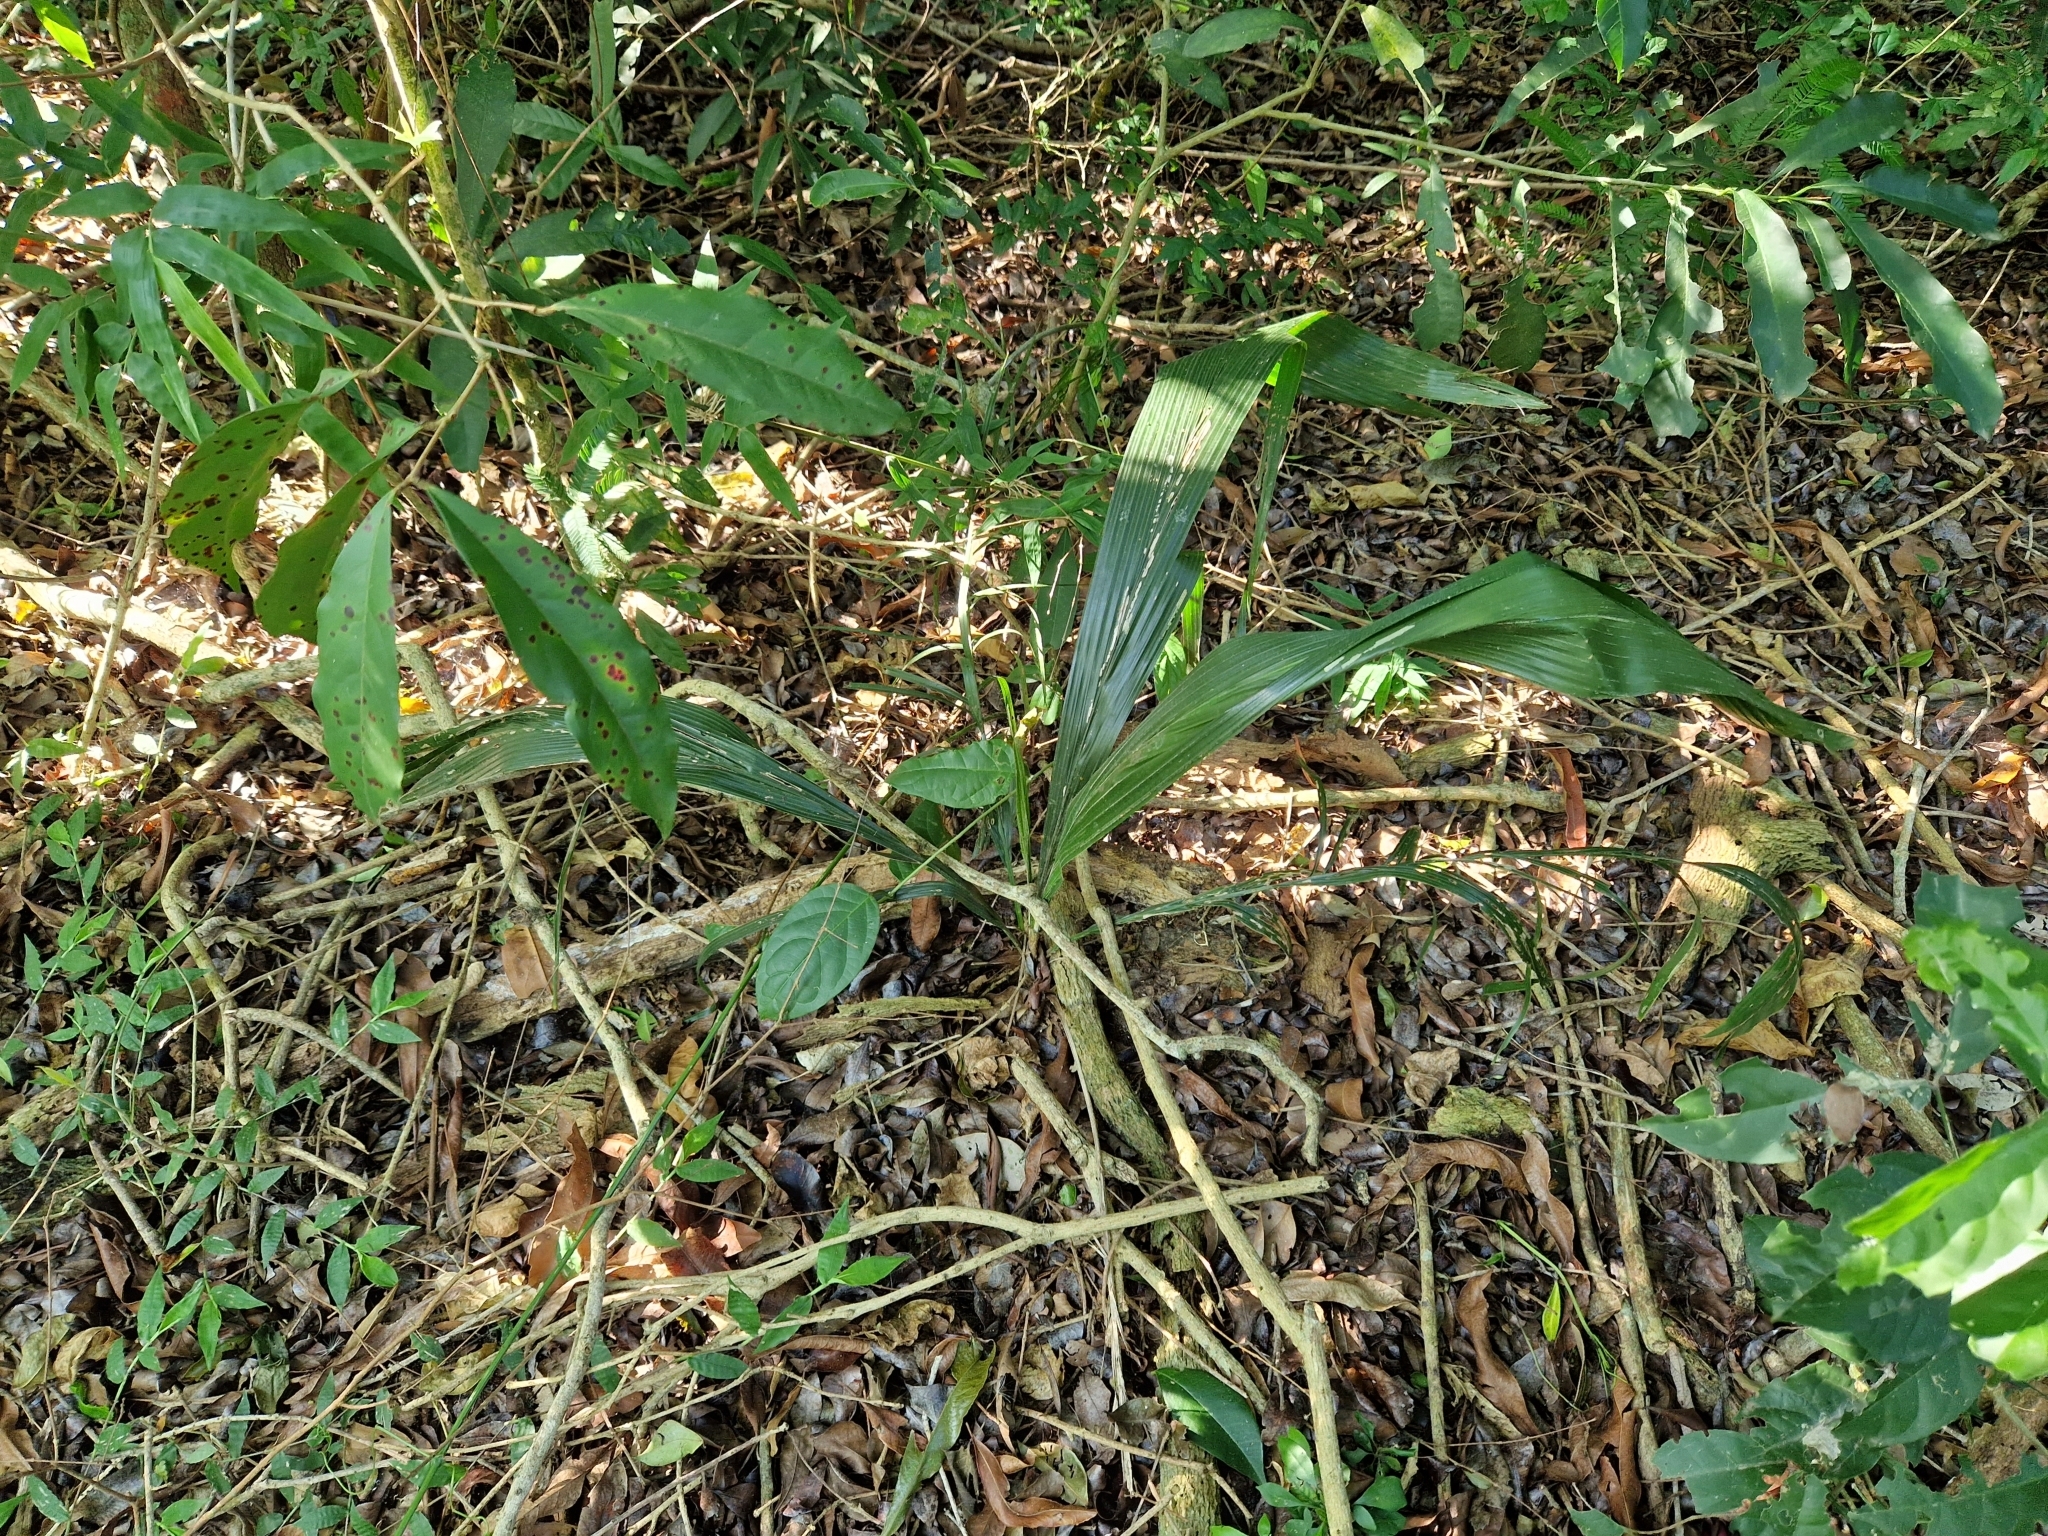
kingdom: Plantae
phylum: Tracheophyta
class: Liliopsida
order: Arecales
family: Arecaceae
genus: Syagrus
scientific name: Syagrus romanzoffiana
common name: Queen palm
